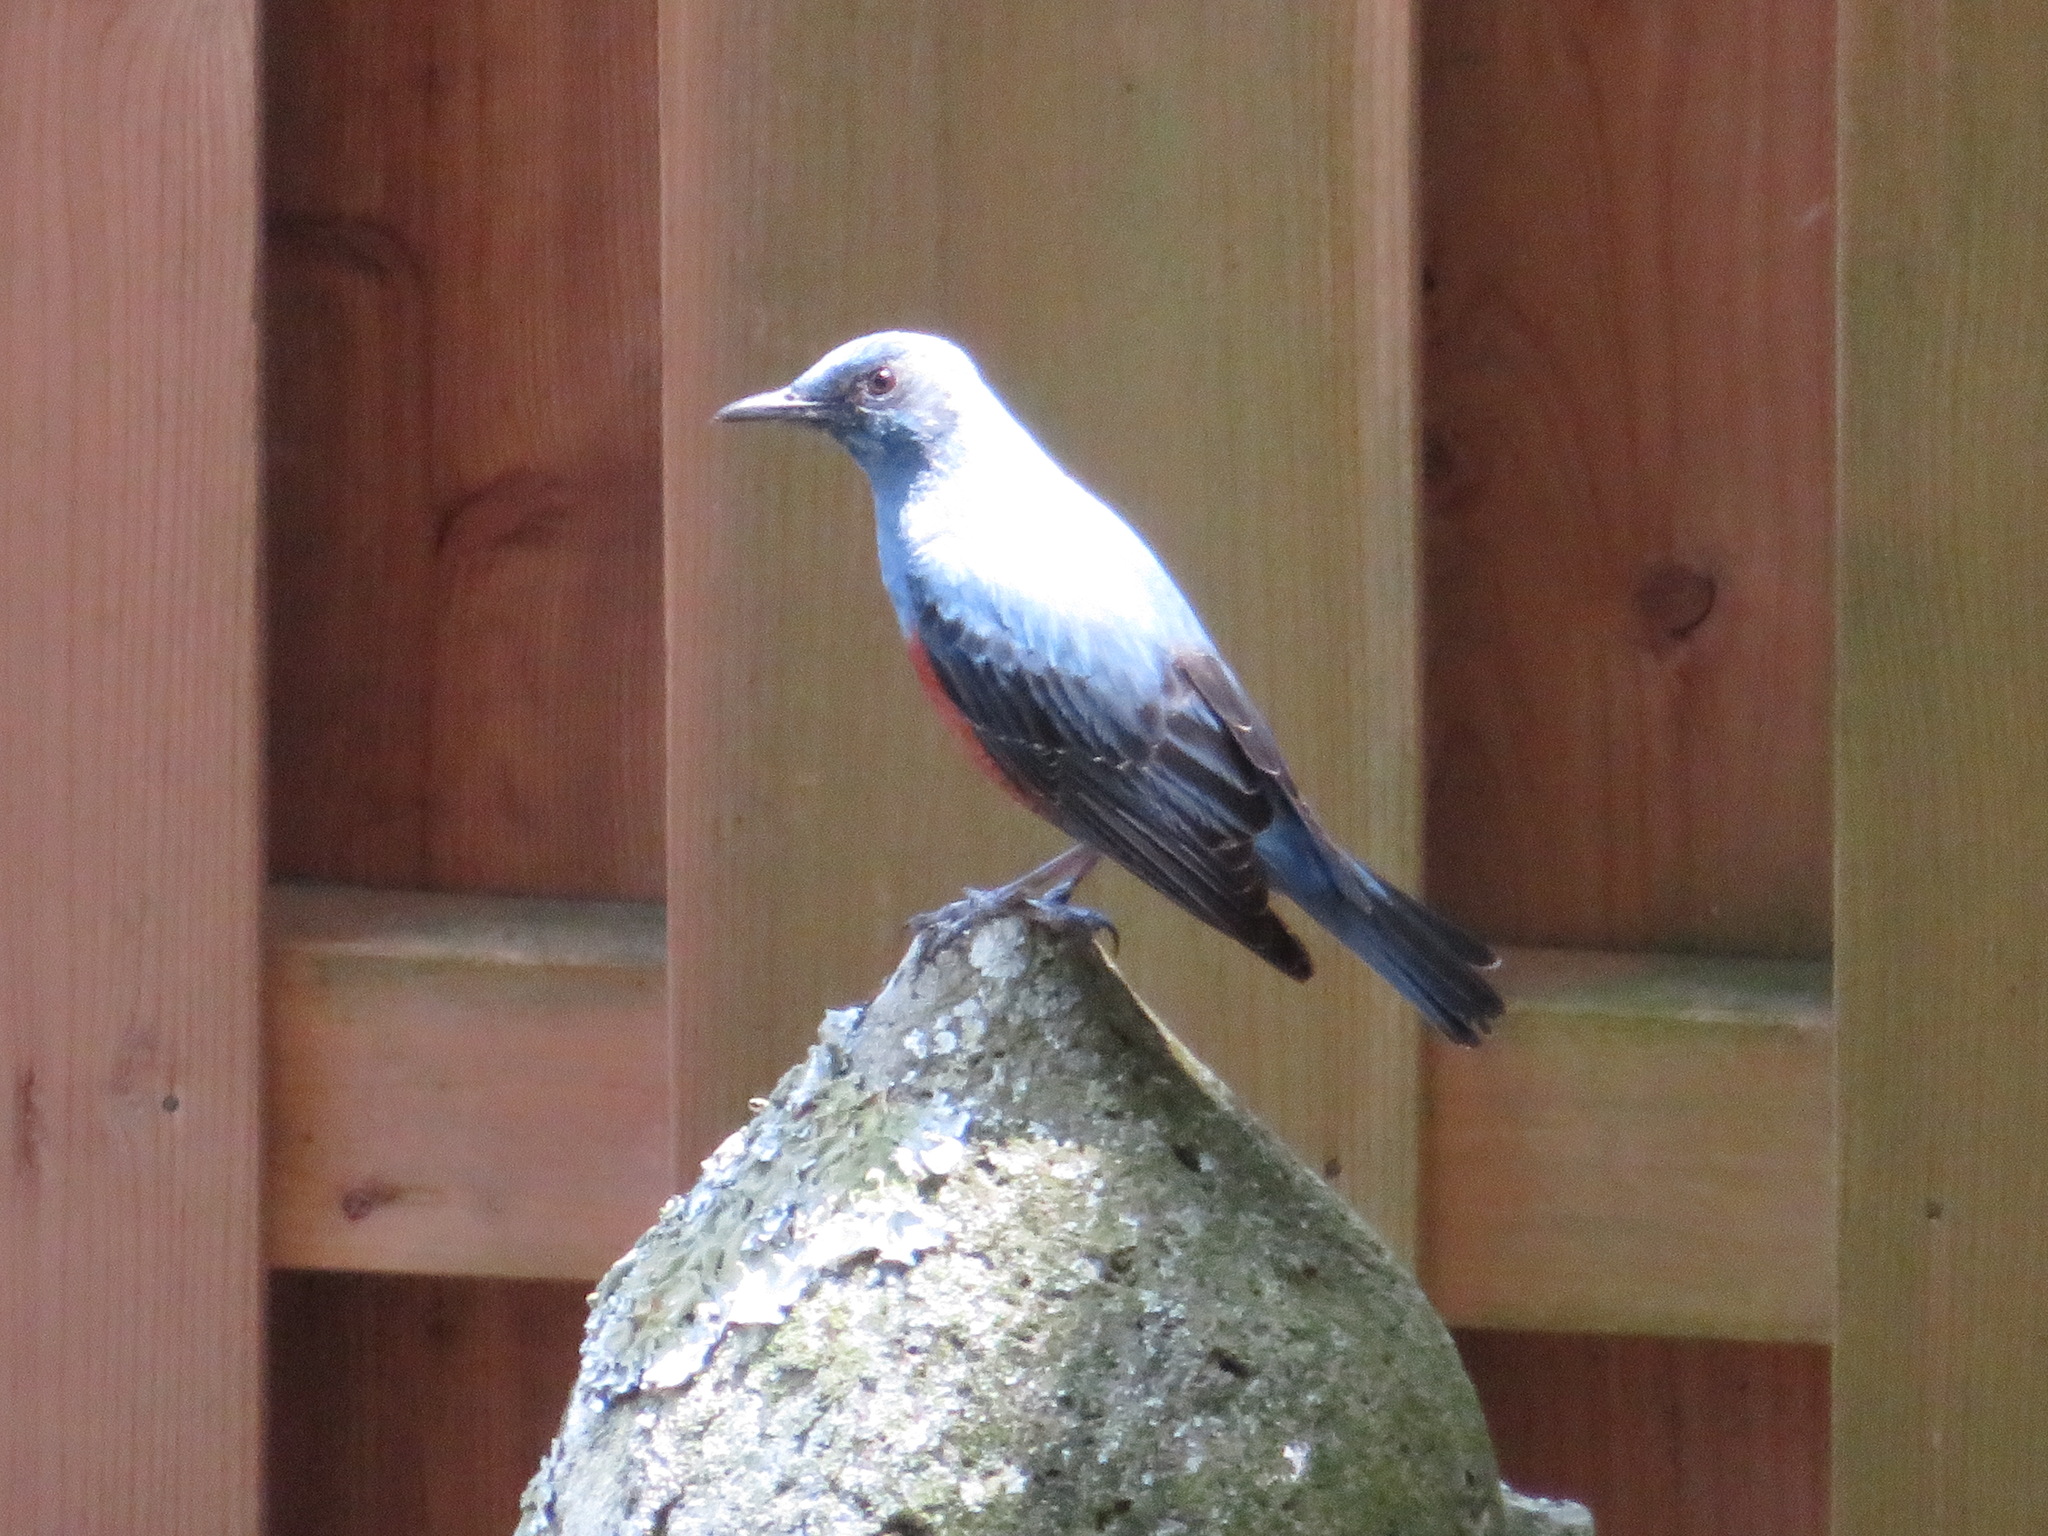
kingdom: Animalia
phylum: Chordata
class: Aves
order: Passeriformes
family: Muscicapidae
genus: Monticola
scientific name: Monticola solitarius
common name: Blue rock thrush
